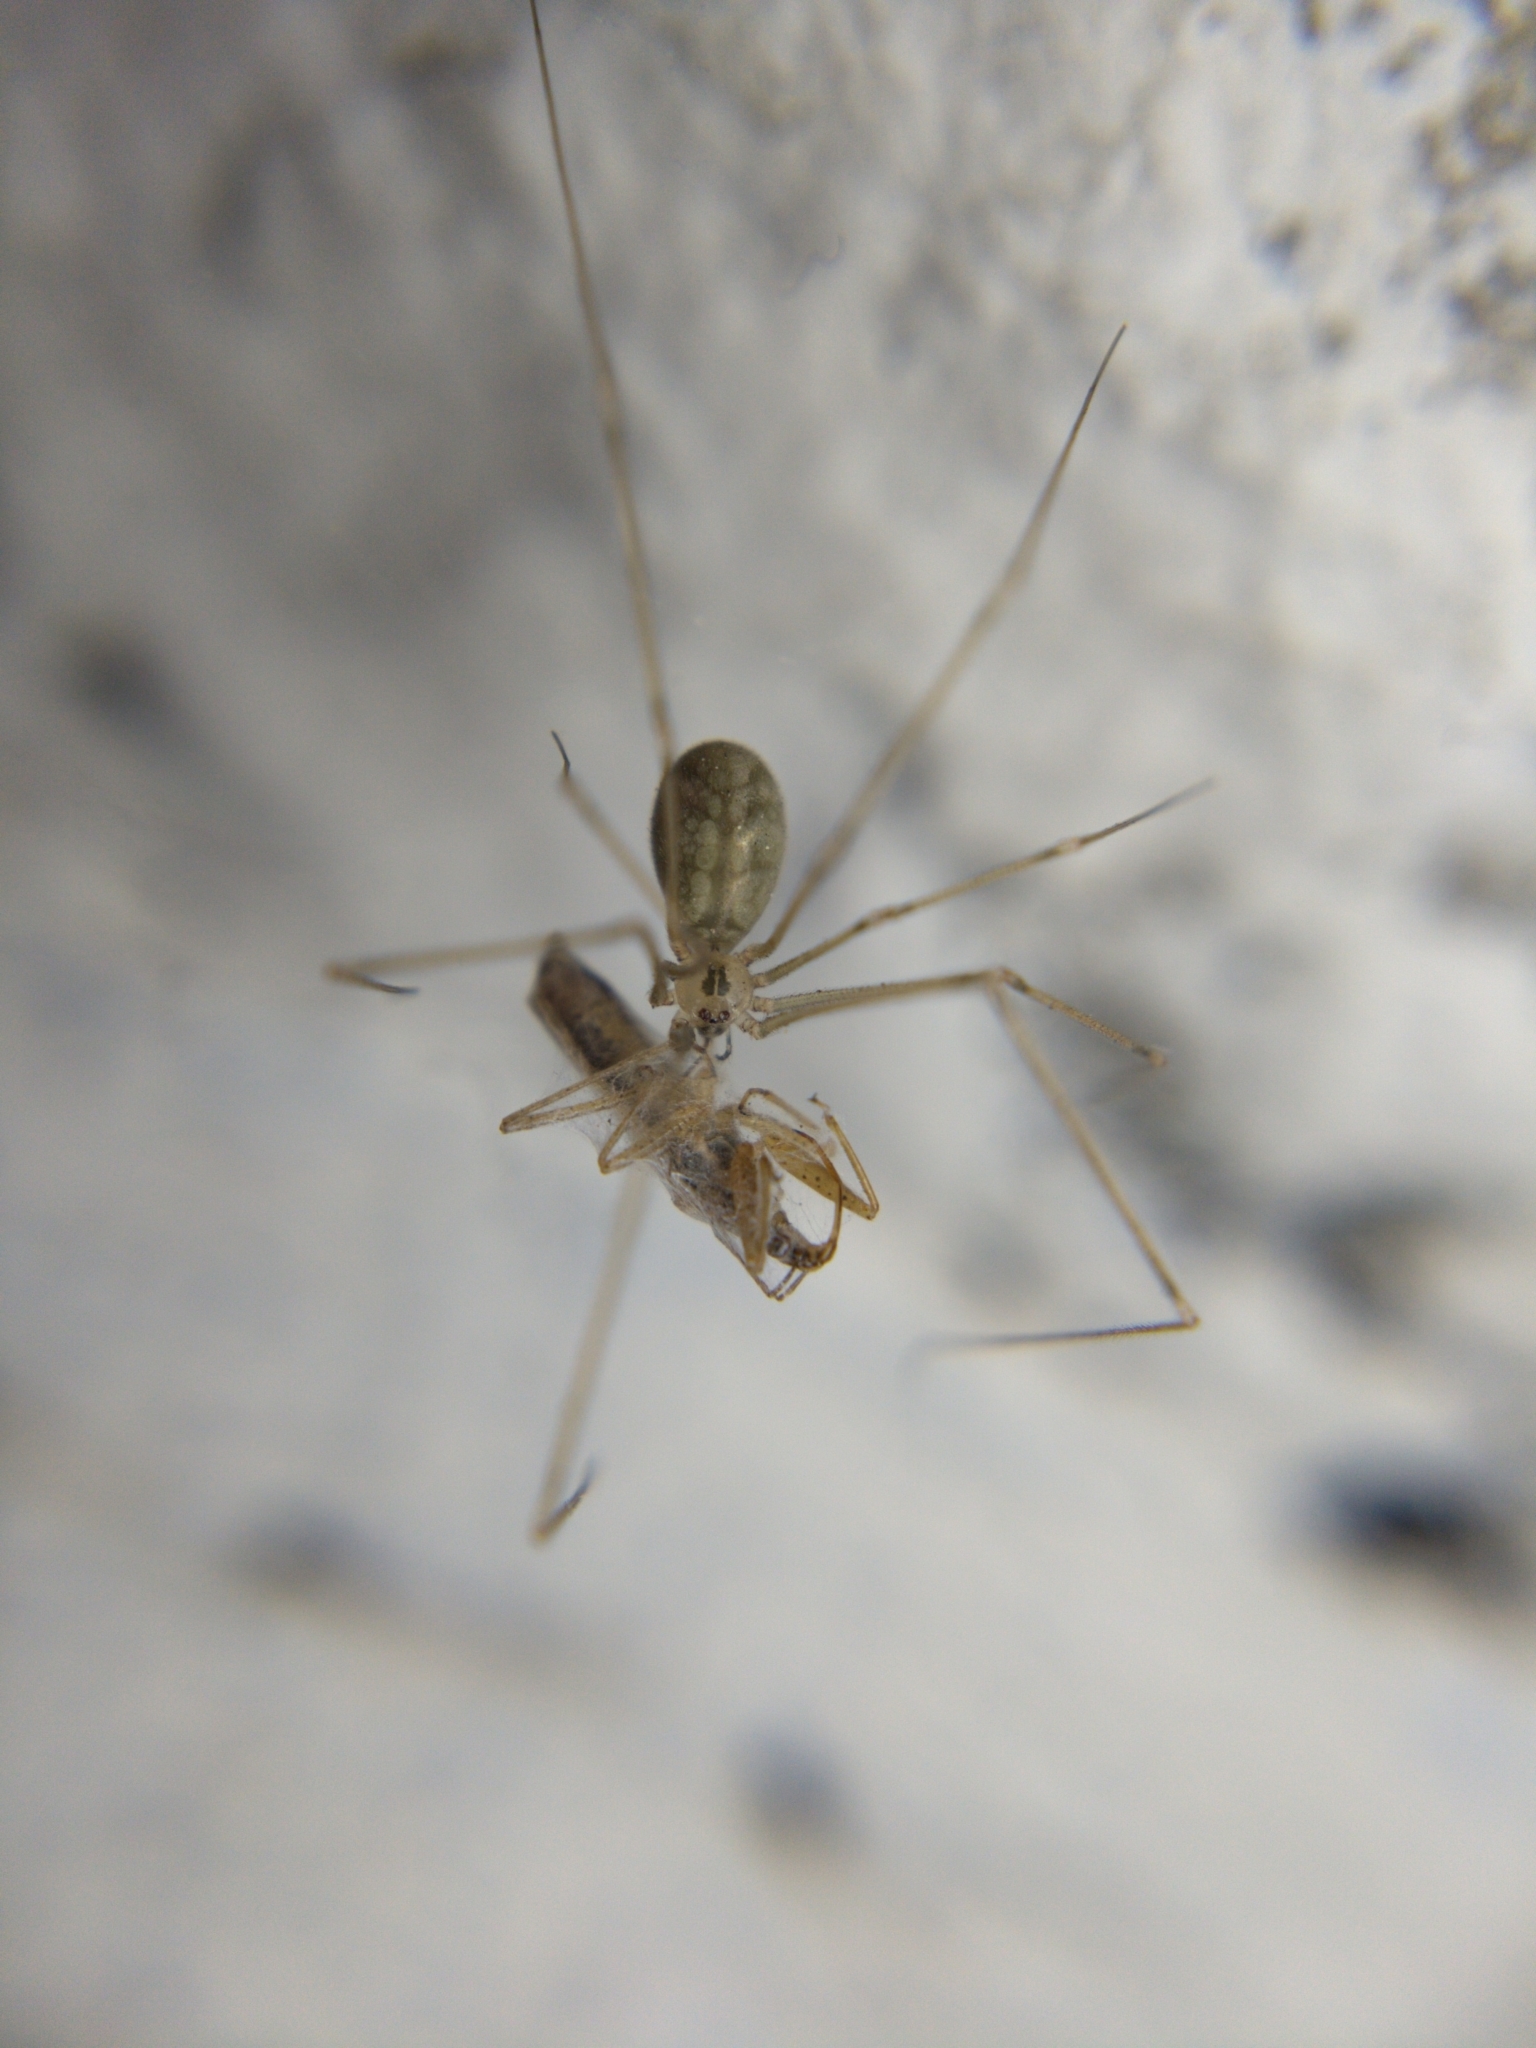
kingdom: Animalia
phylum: Arthropoda
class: Arachnida
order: Araneae
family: Pholcidae
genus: Pholcus
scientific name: Pholcus manueli
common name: Cellar spider
